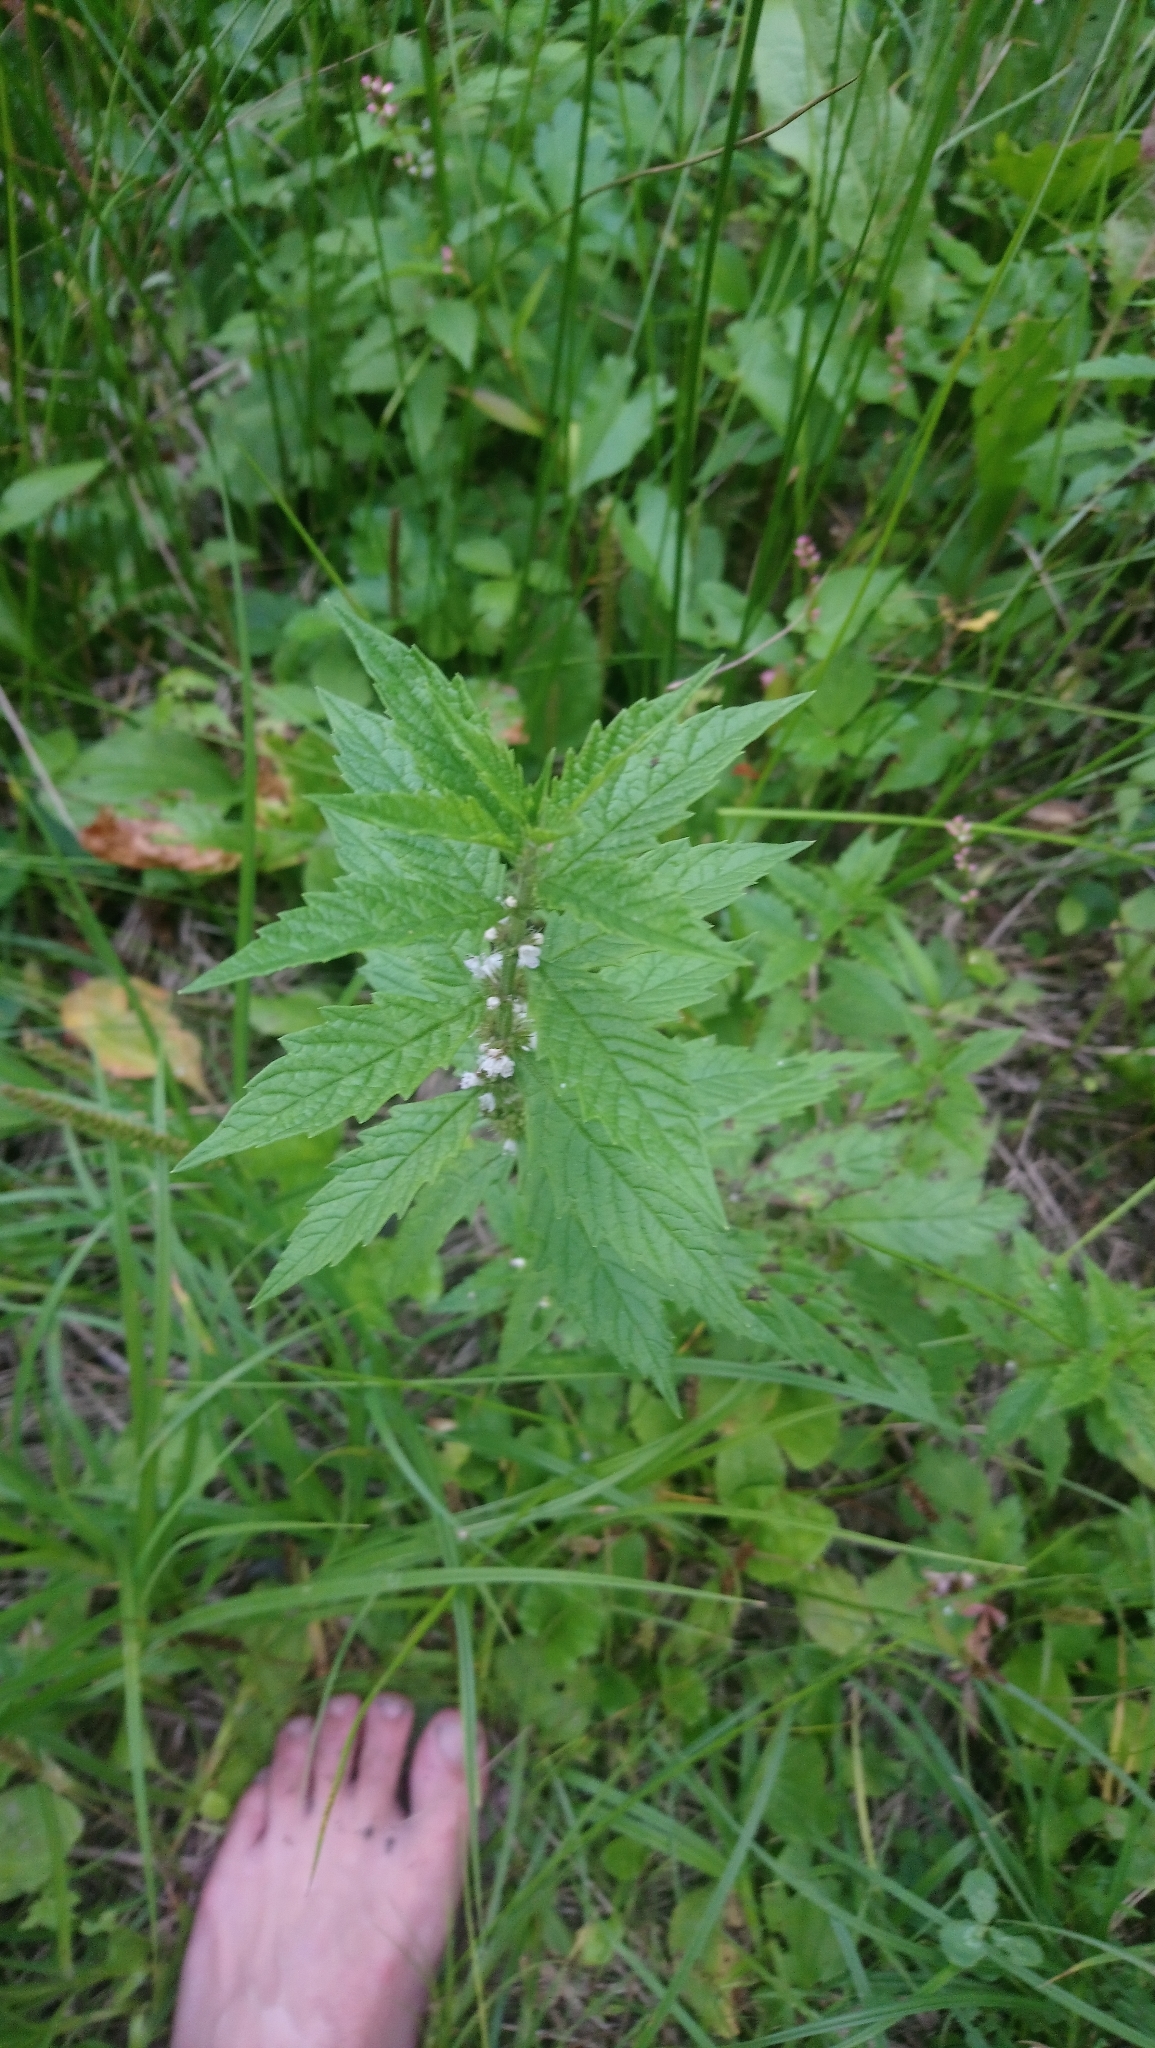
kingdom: Plantae
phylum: Tracheophyta
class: Magnoliopsida
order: Lamiales
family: Lamiaceae
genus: Lycopus
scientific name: Lycopus europaeus
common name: European bugleweed
